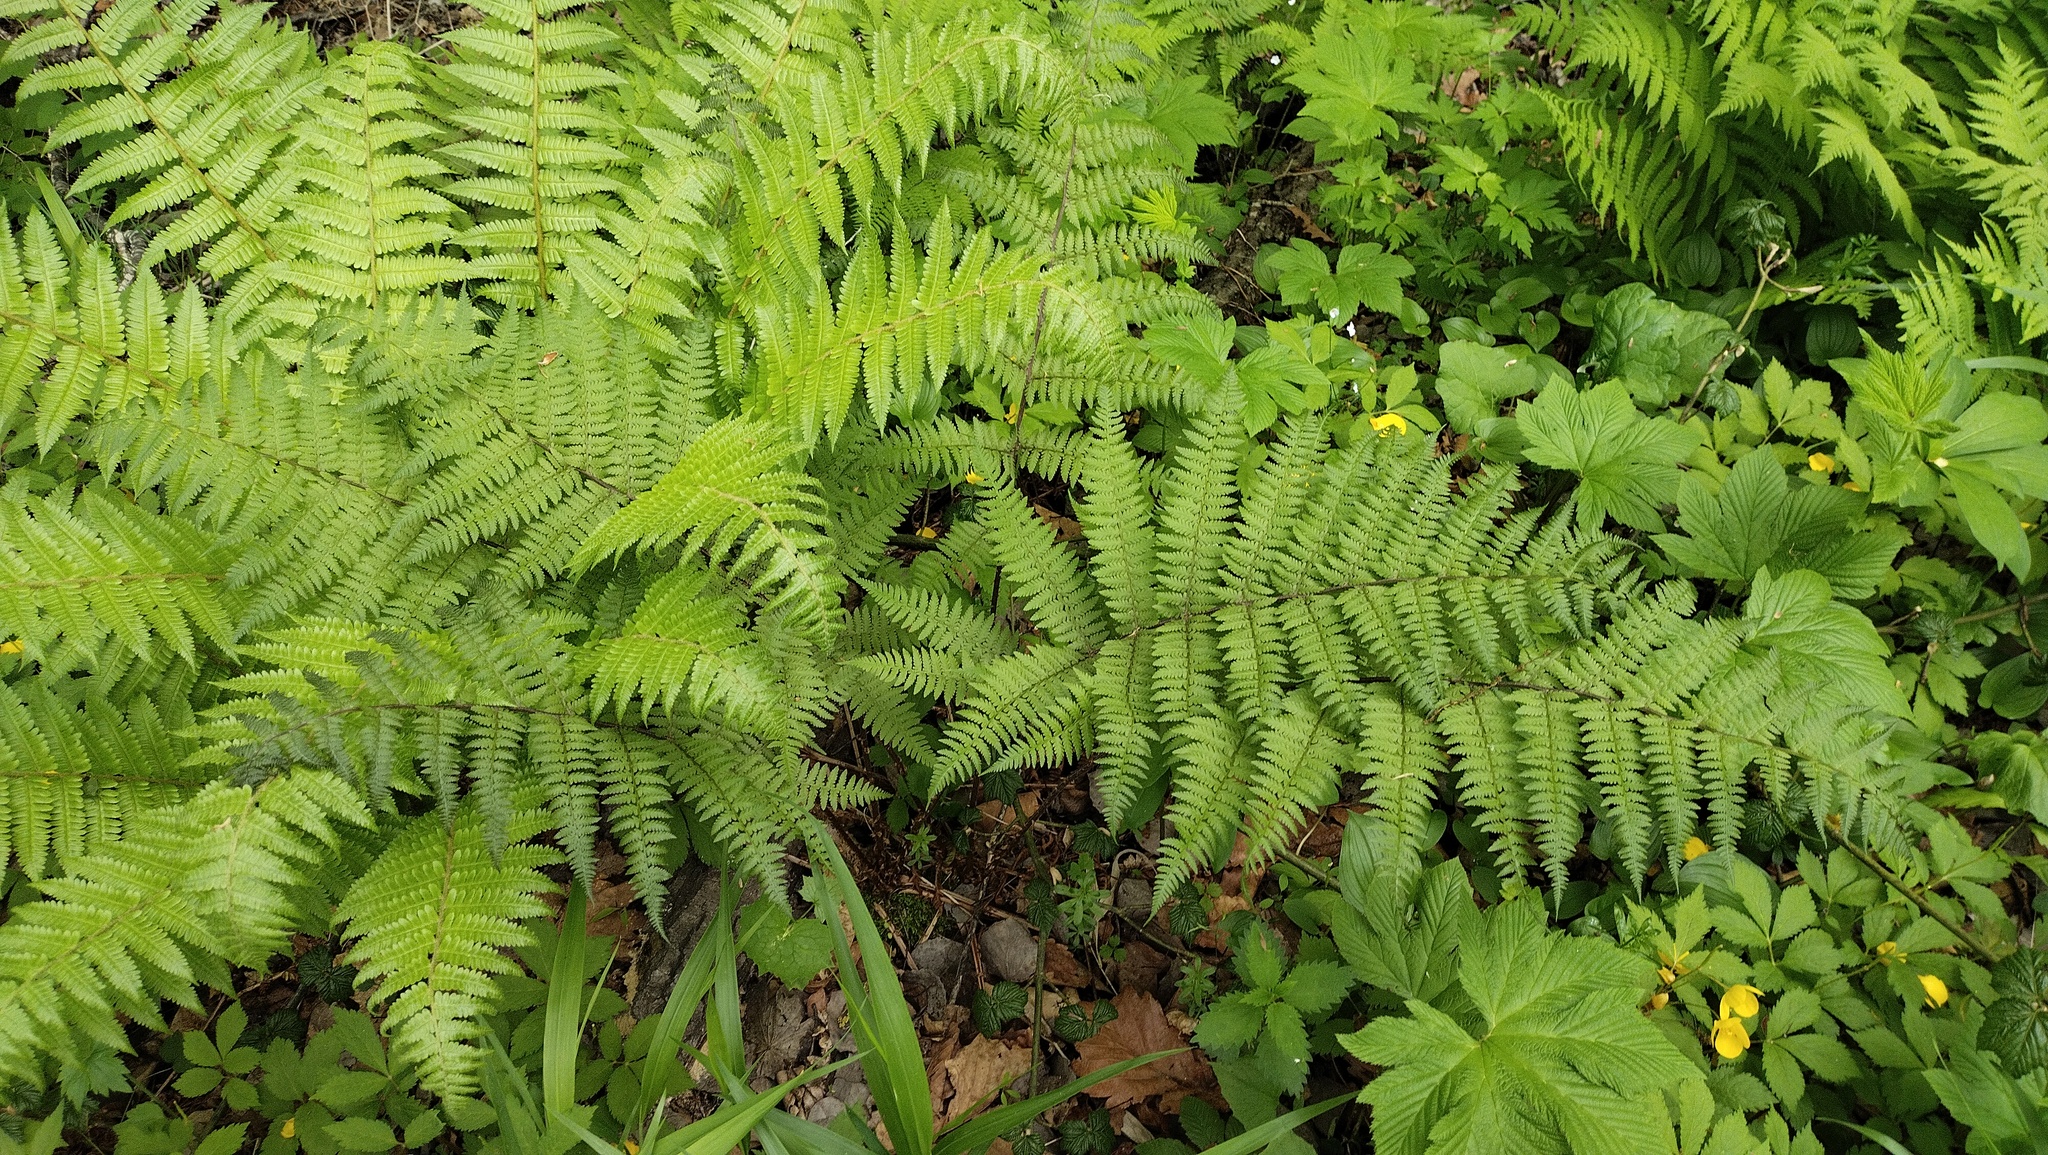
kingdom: Plantae
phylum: Tracheophyta
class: Polypodiopsida
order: Polypodiales
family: Athyriaceae
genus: Athyrium
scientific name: Athyrium filix-femina
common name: Lady fern
